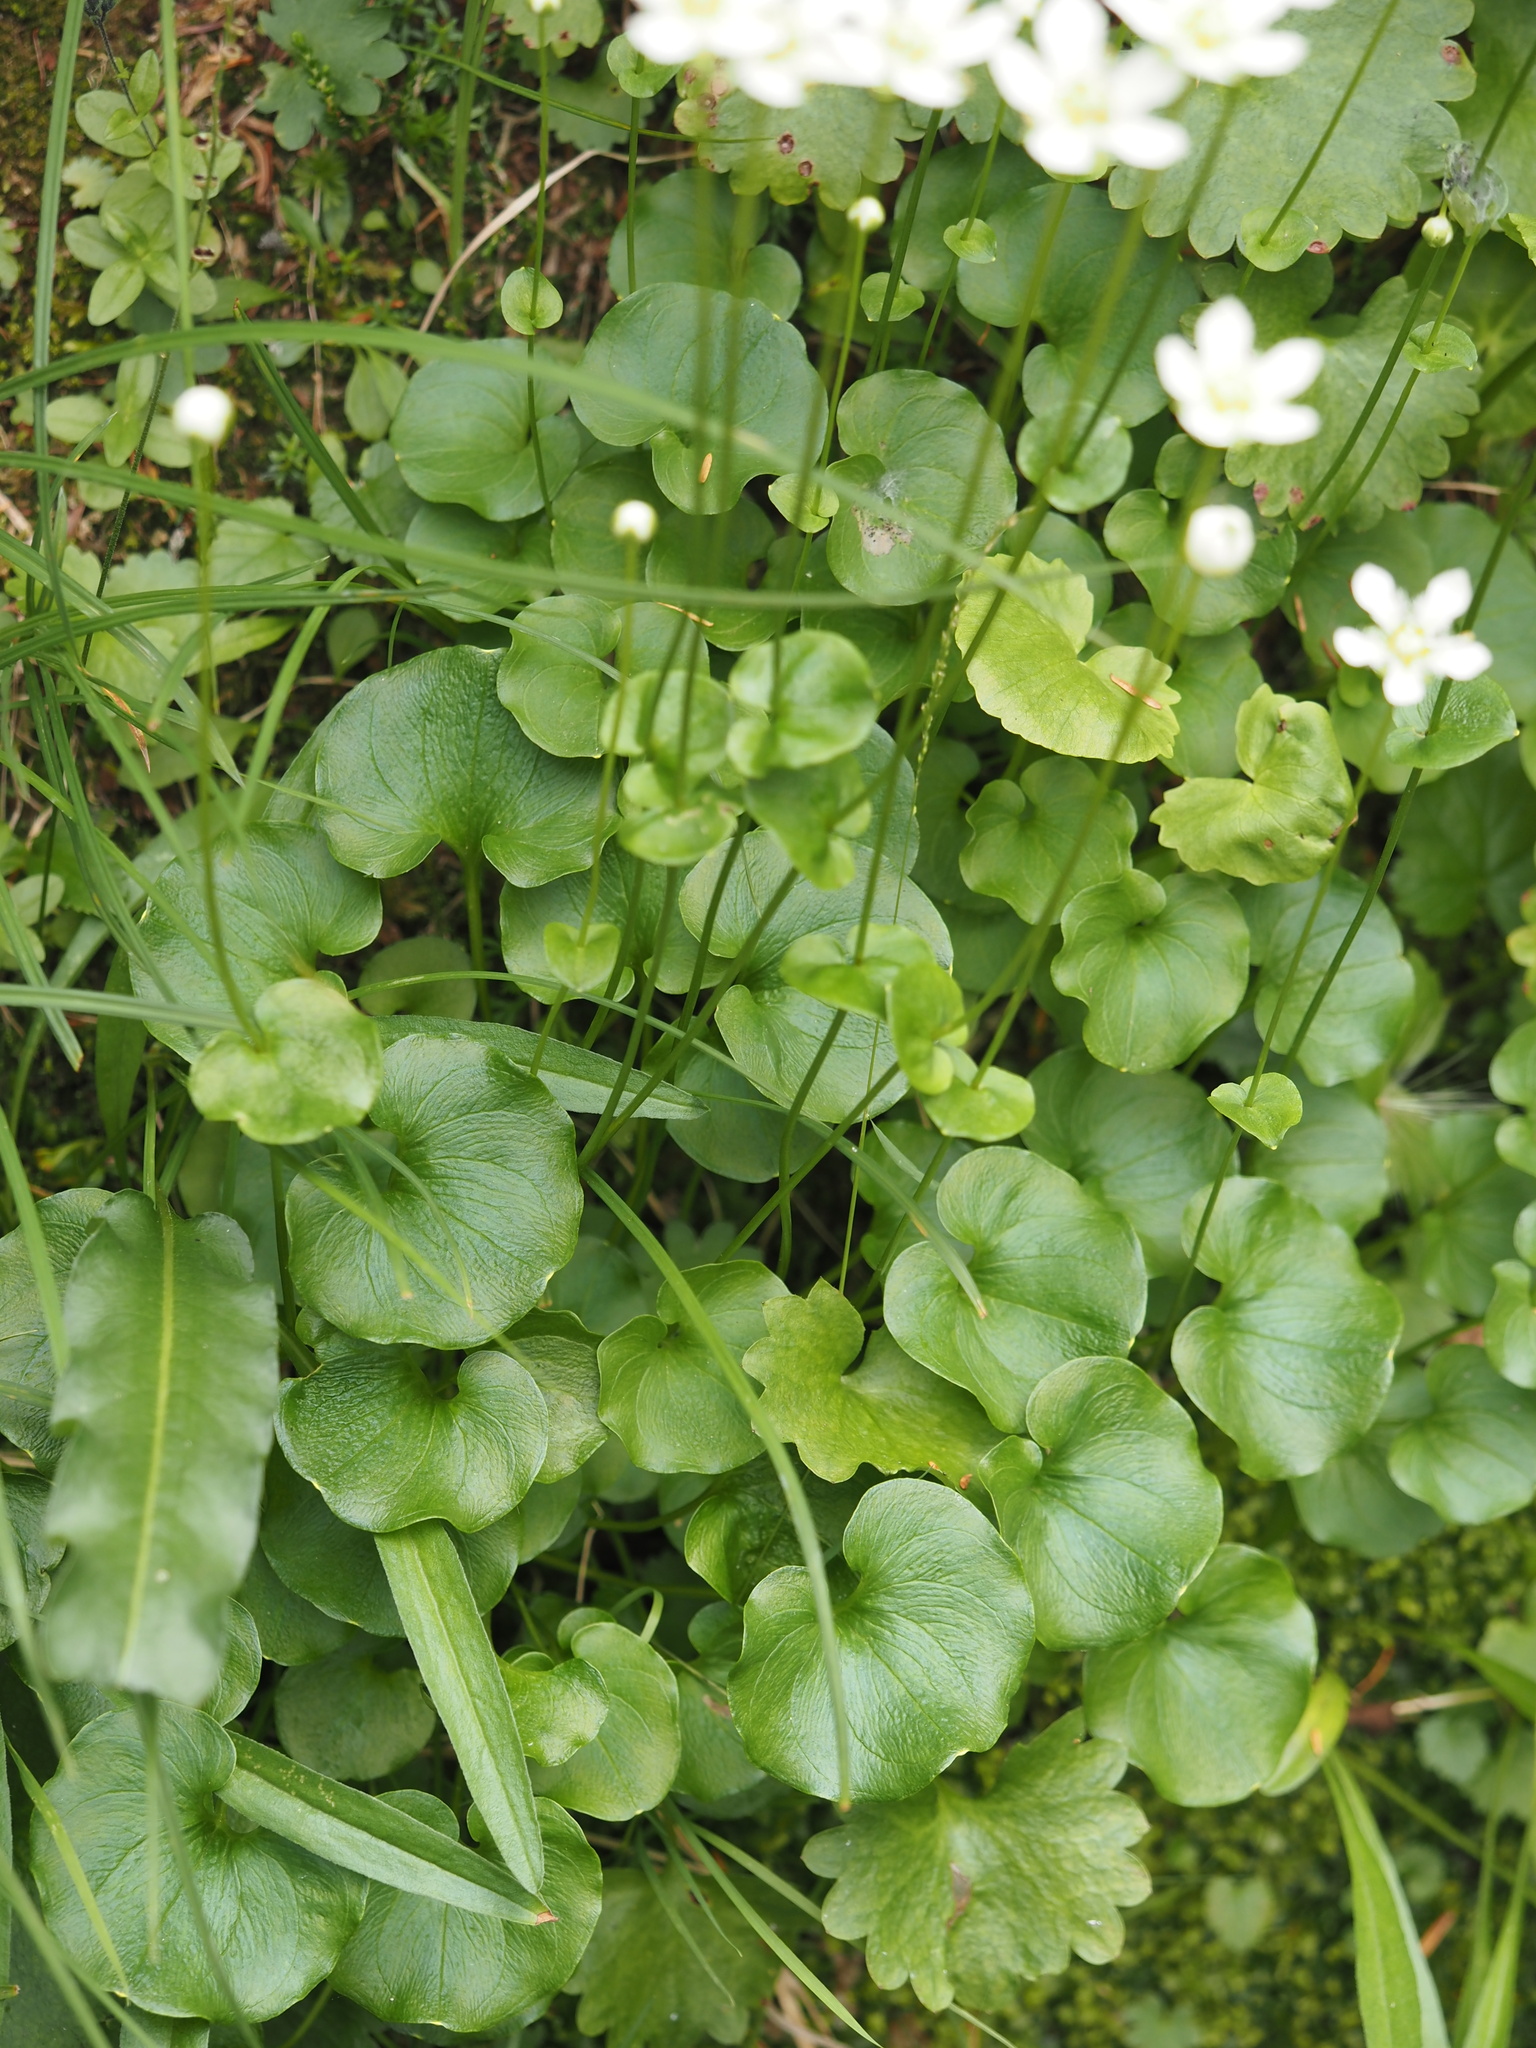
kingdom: Plantae
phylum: Tracheophyta
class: Magnoliopsida
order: Celastrales
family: Parnassiaceae
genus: Parnassia
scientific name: Parnassia fimbriata
